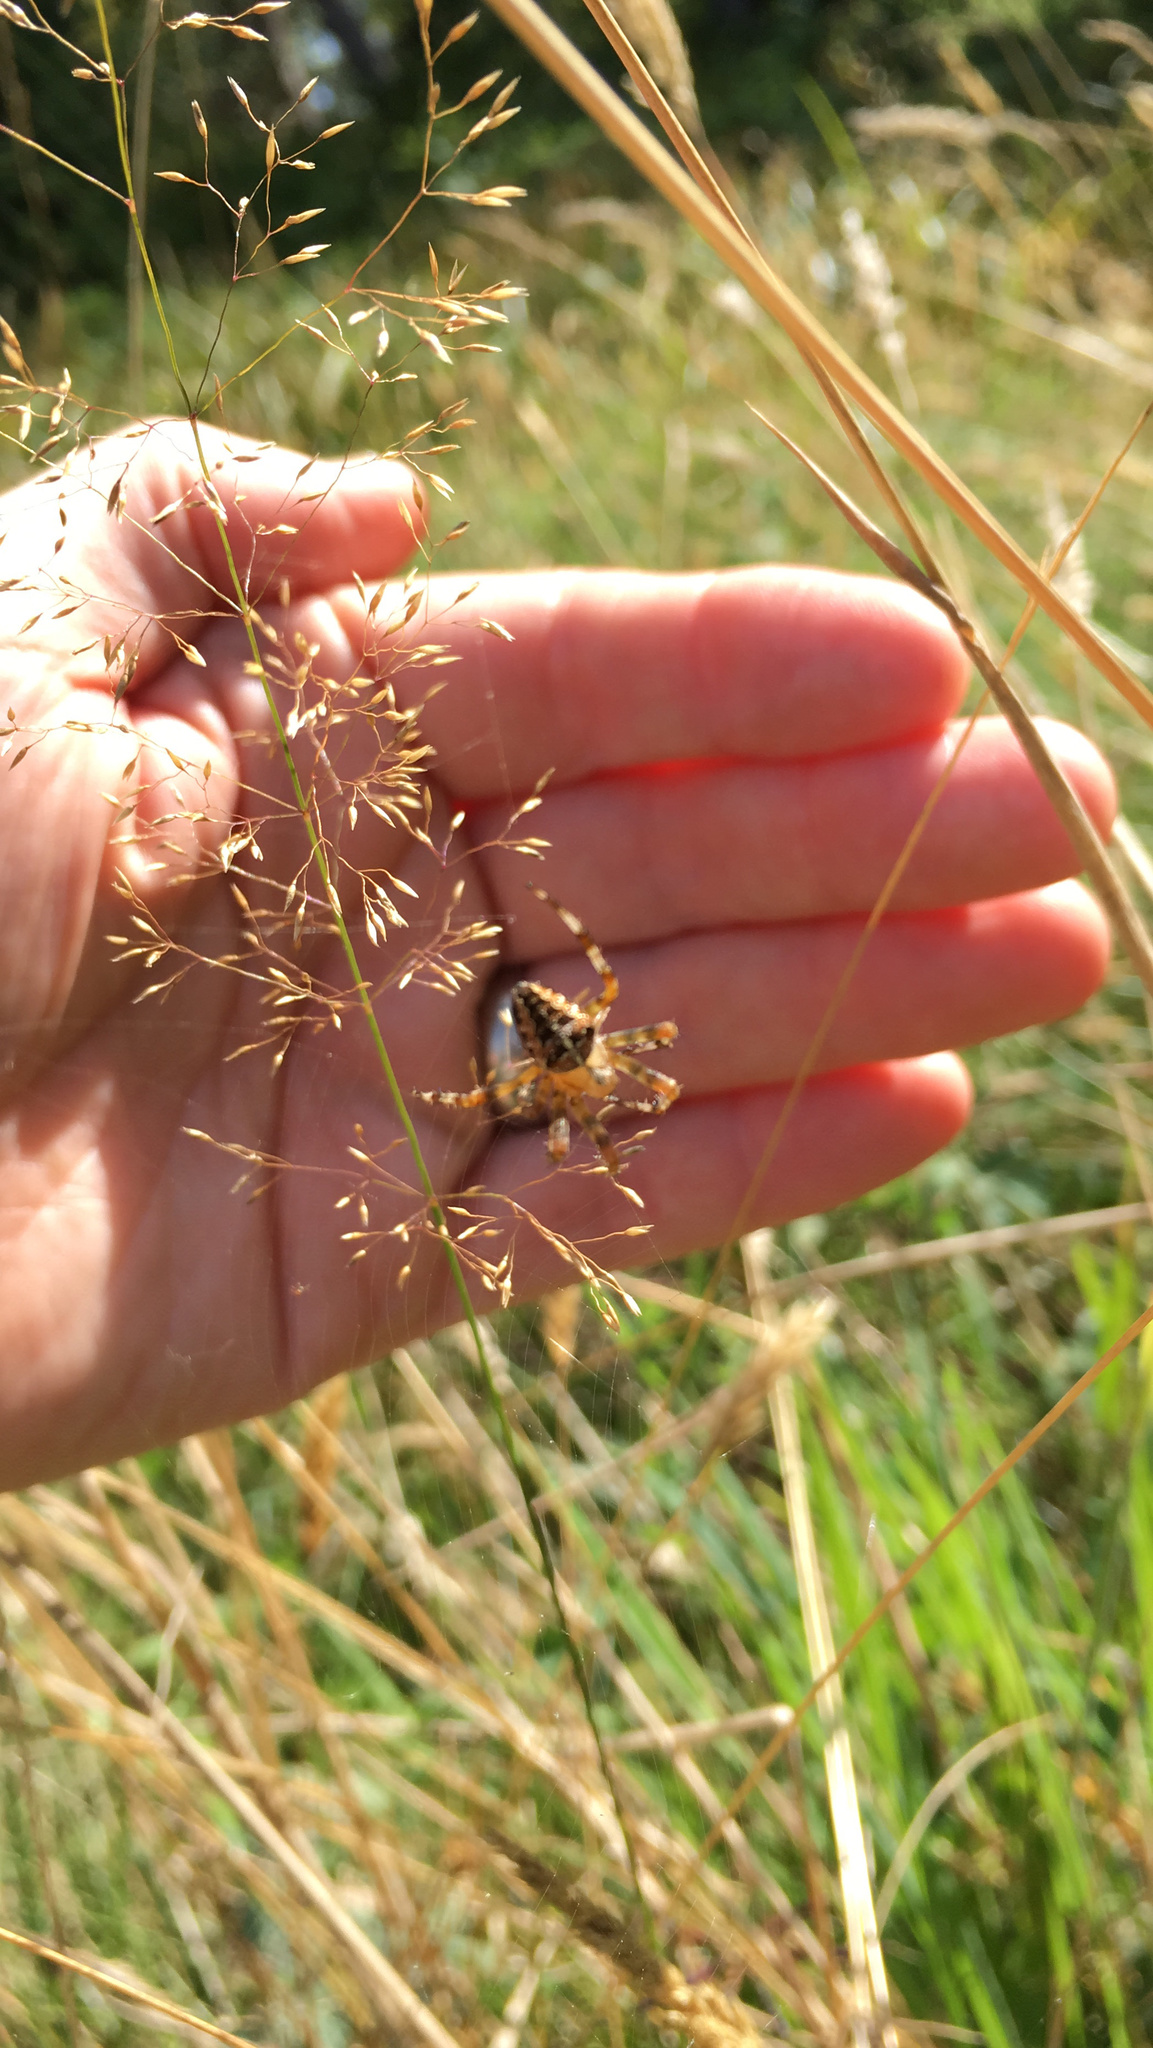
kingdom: Animalia
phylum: Arthropoda
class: Arachnida
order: Araneae
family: Araneidae
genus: Araneus
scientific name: Araneus diadematus
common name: Cross orbweaver
